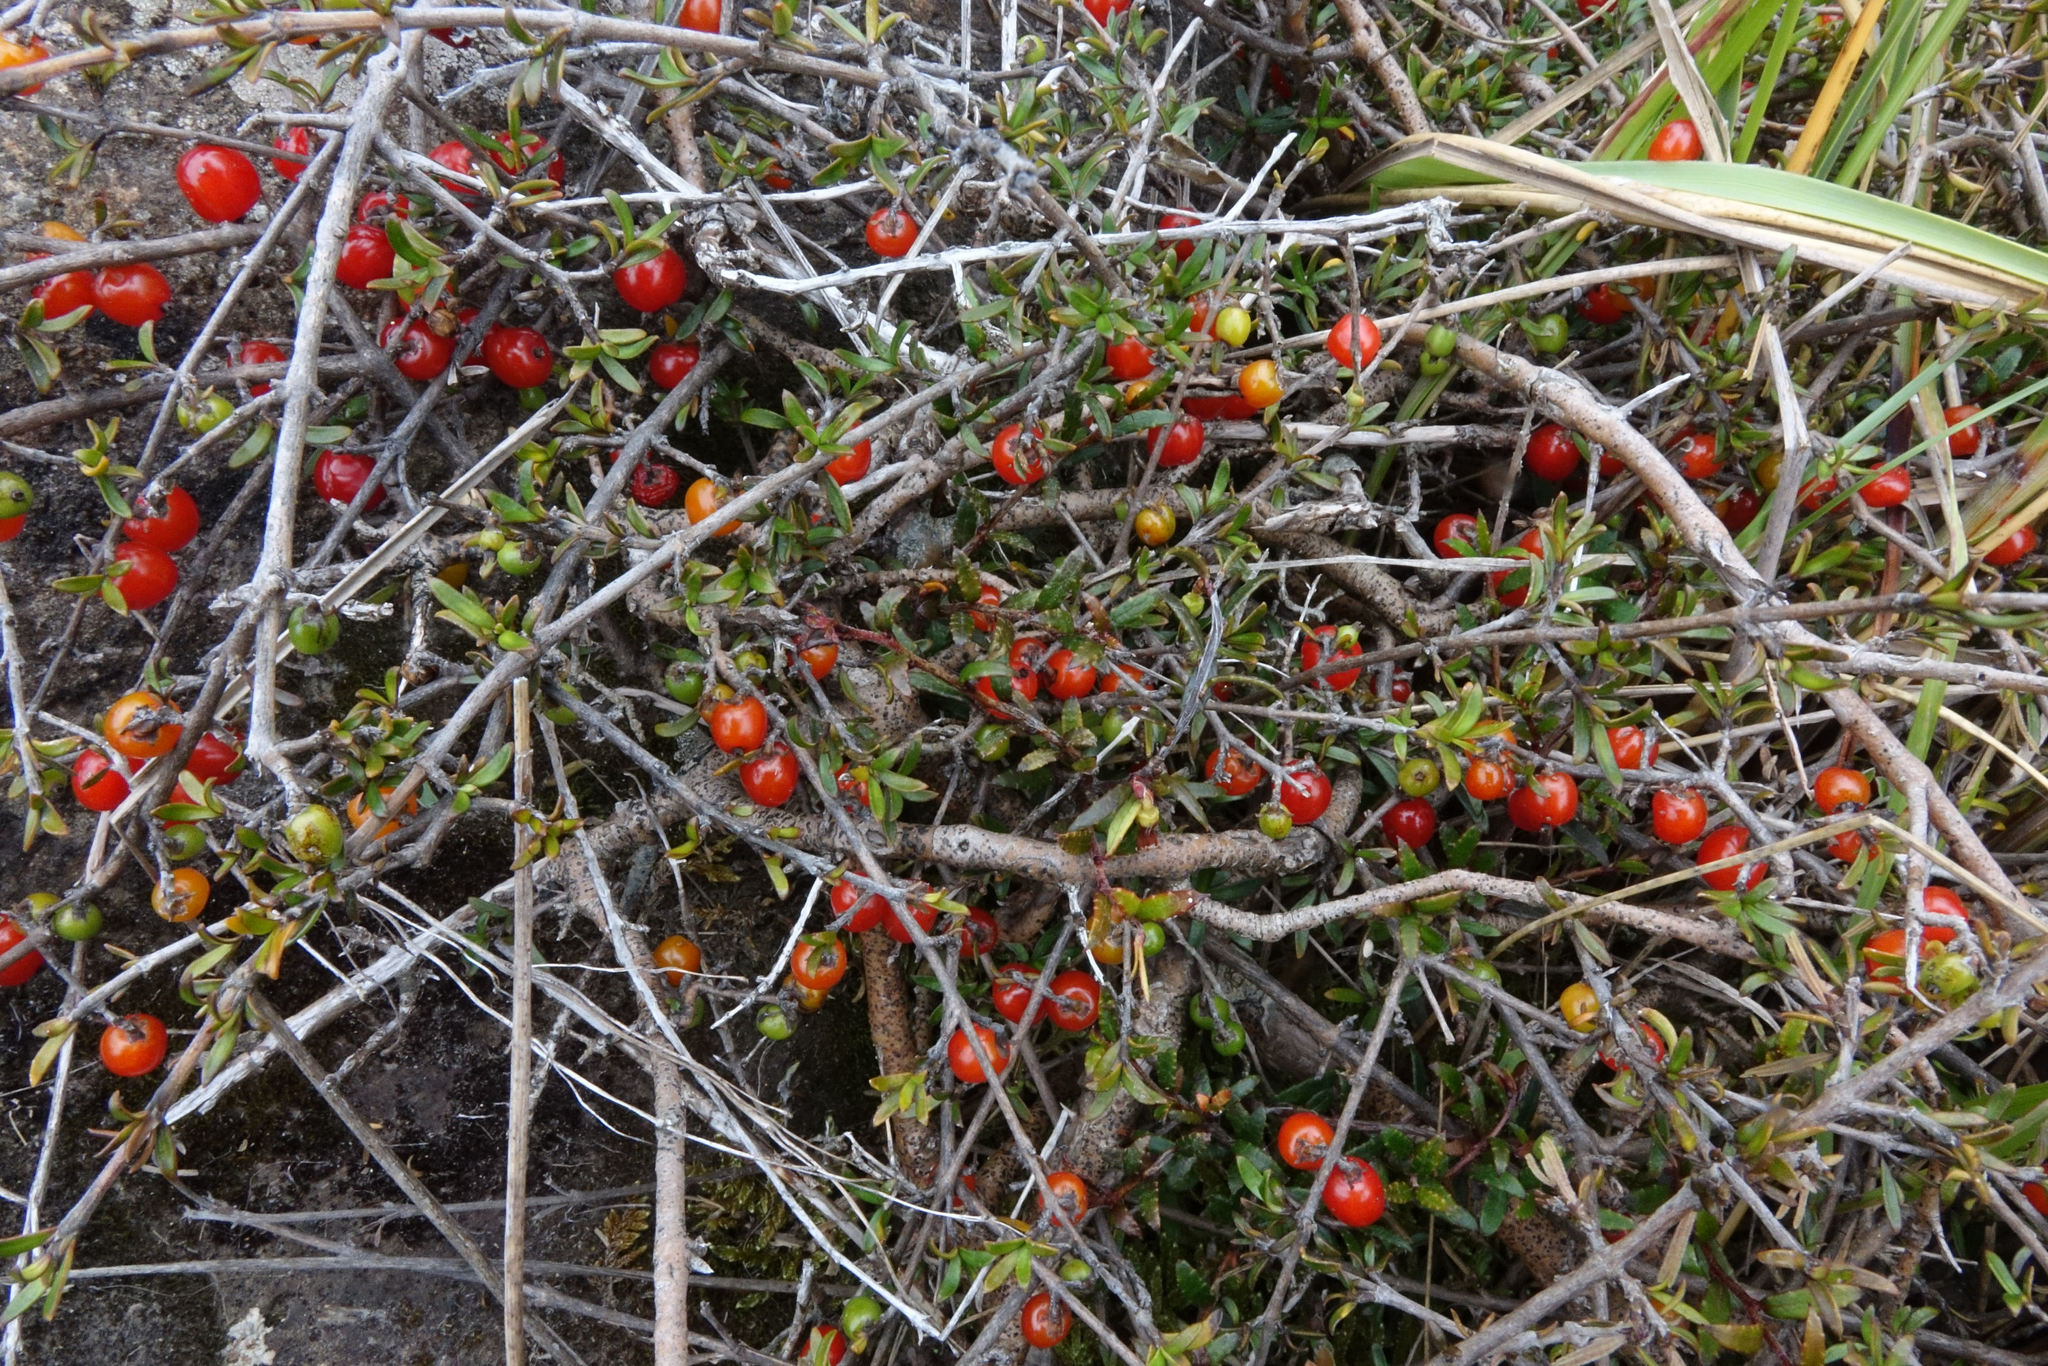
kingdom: Plantae
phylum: Tracheophyta
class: Magnoliopsida
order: Gentianales
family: Rubiaceae
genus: Coprosma
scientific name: Coprosma cheesemanii
